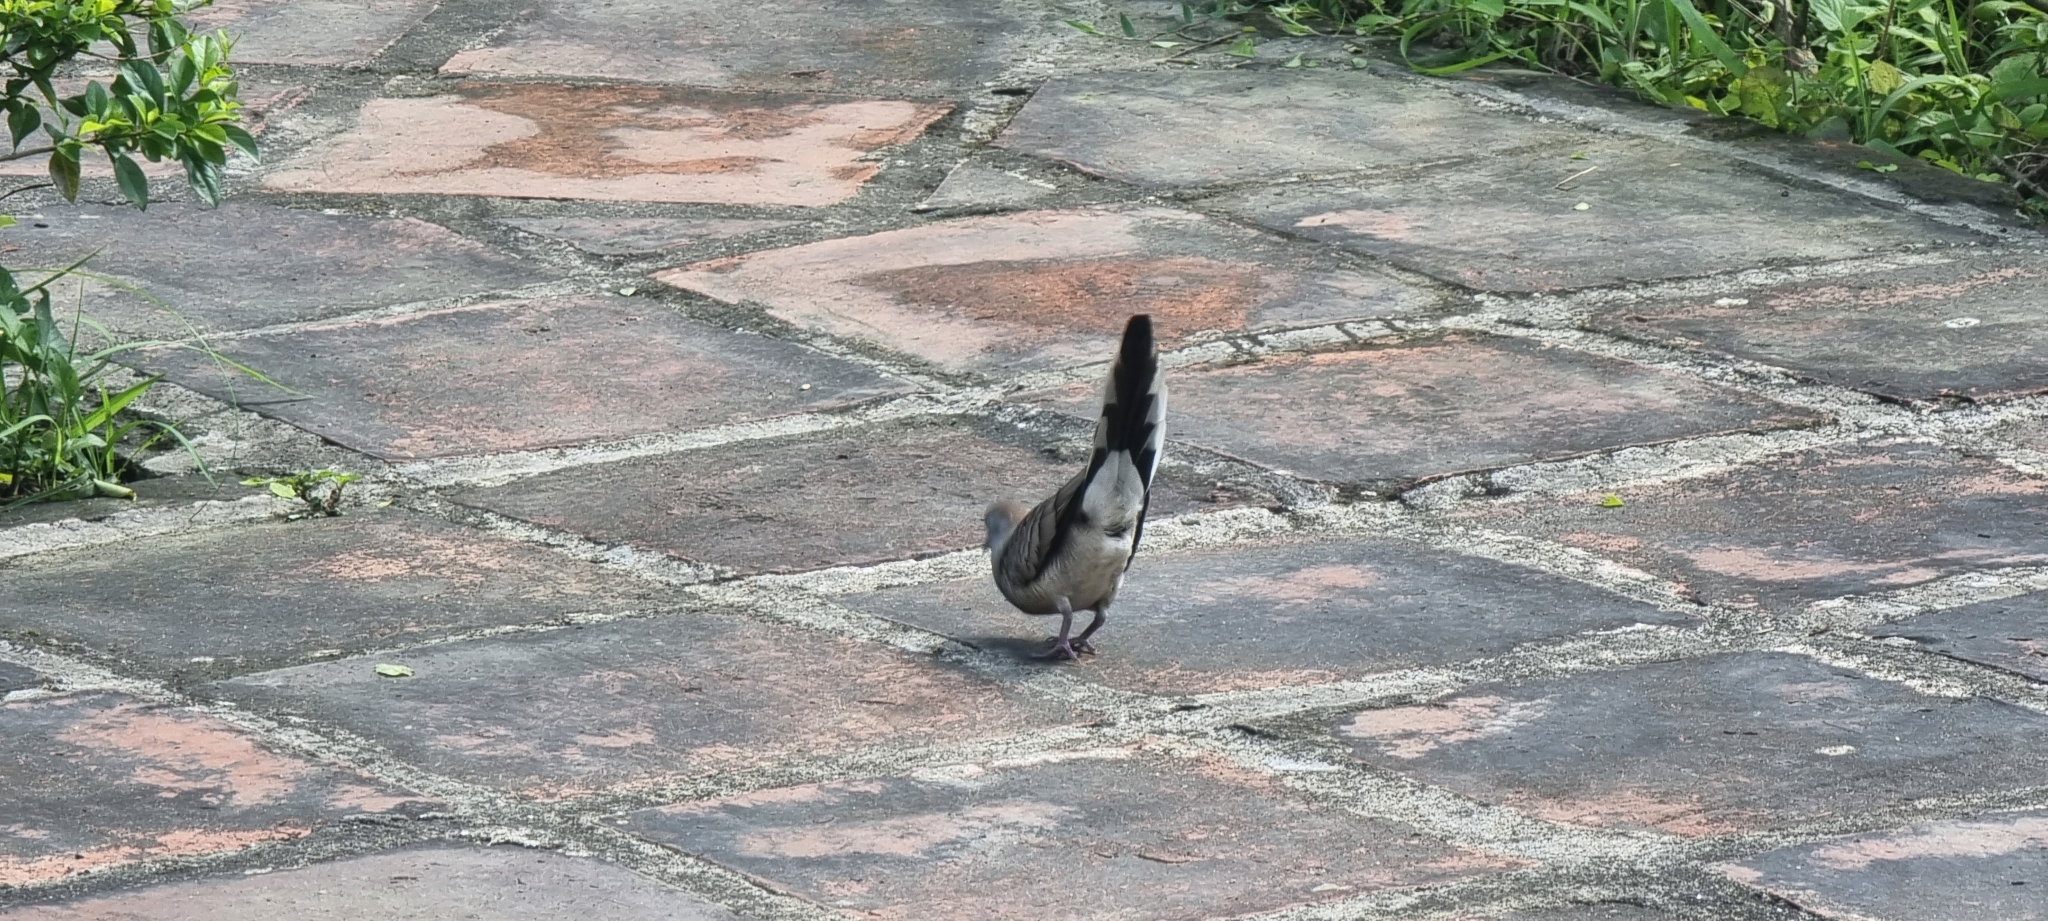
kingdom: Animalia
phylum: Chordata
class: Aves
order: Columbiformes
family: Columbidae
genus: Geopelia
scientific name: Geopelia striata
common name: Zebra dove
